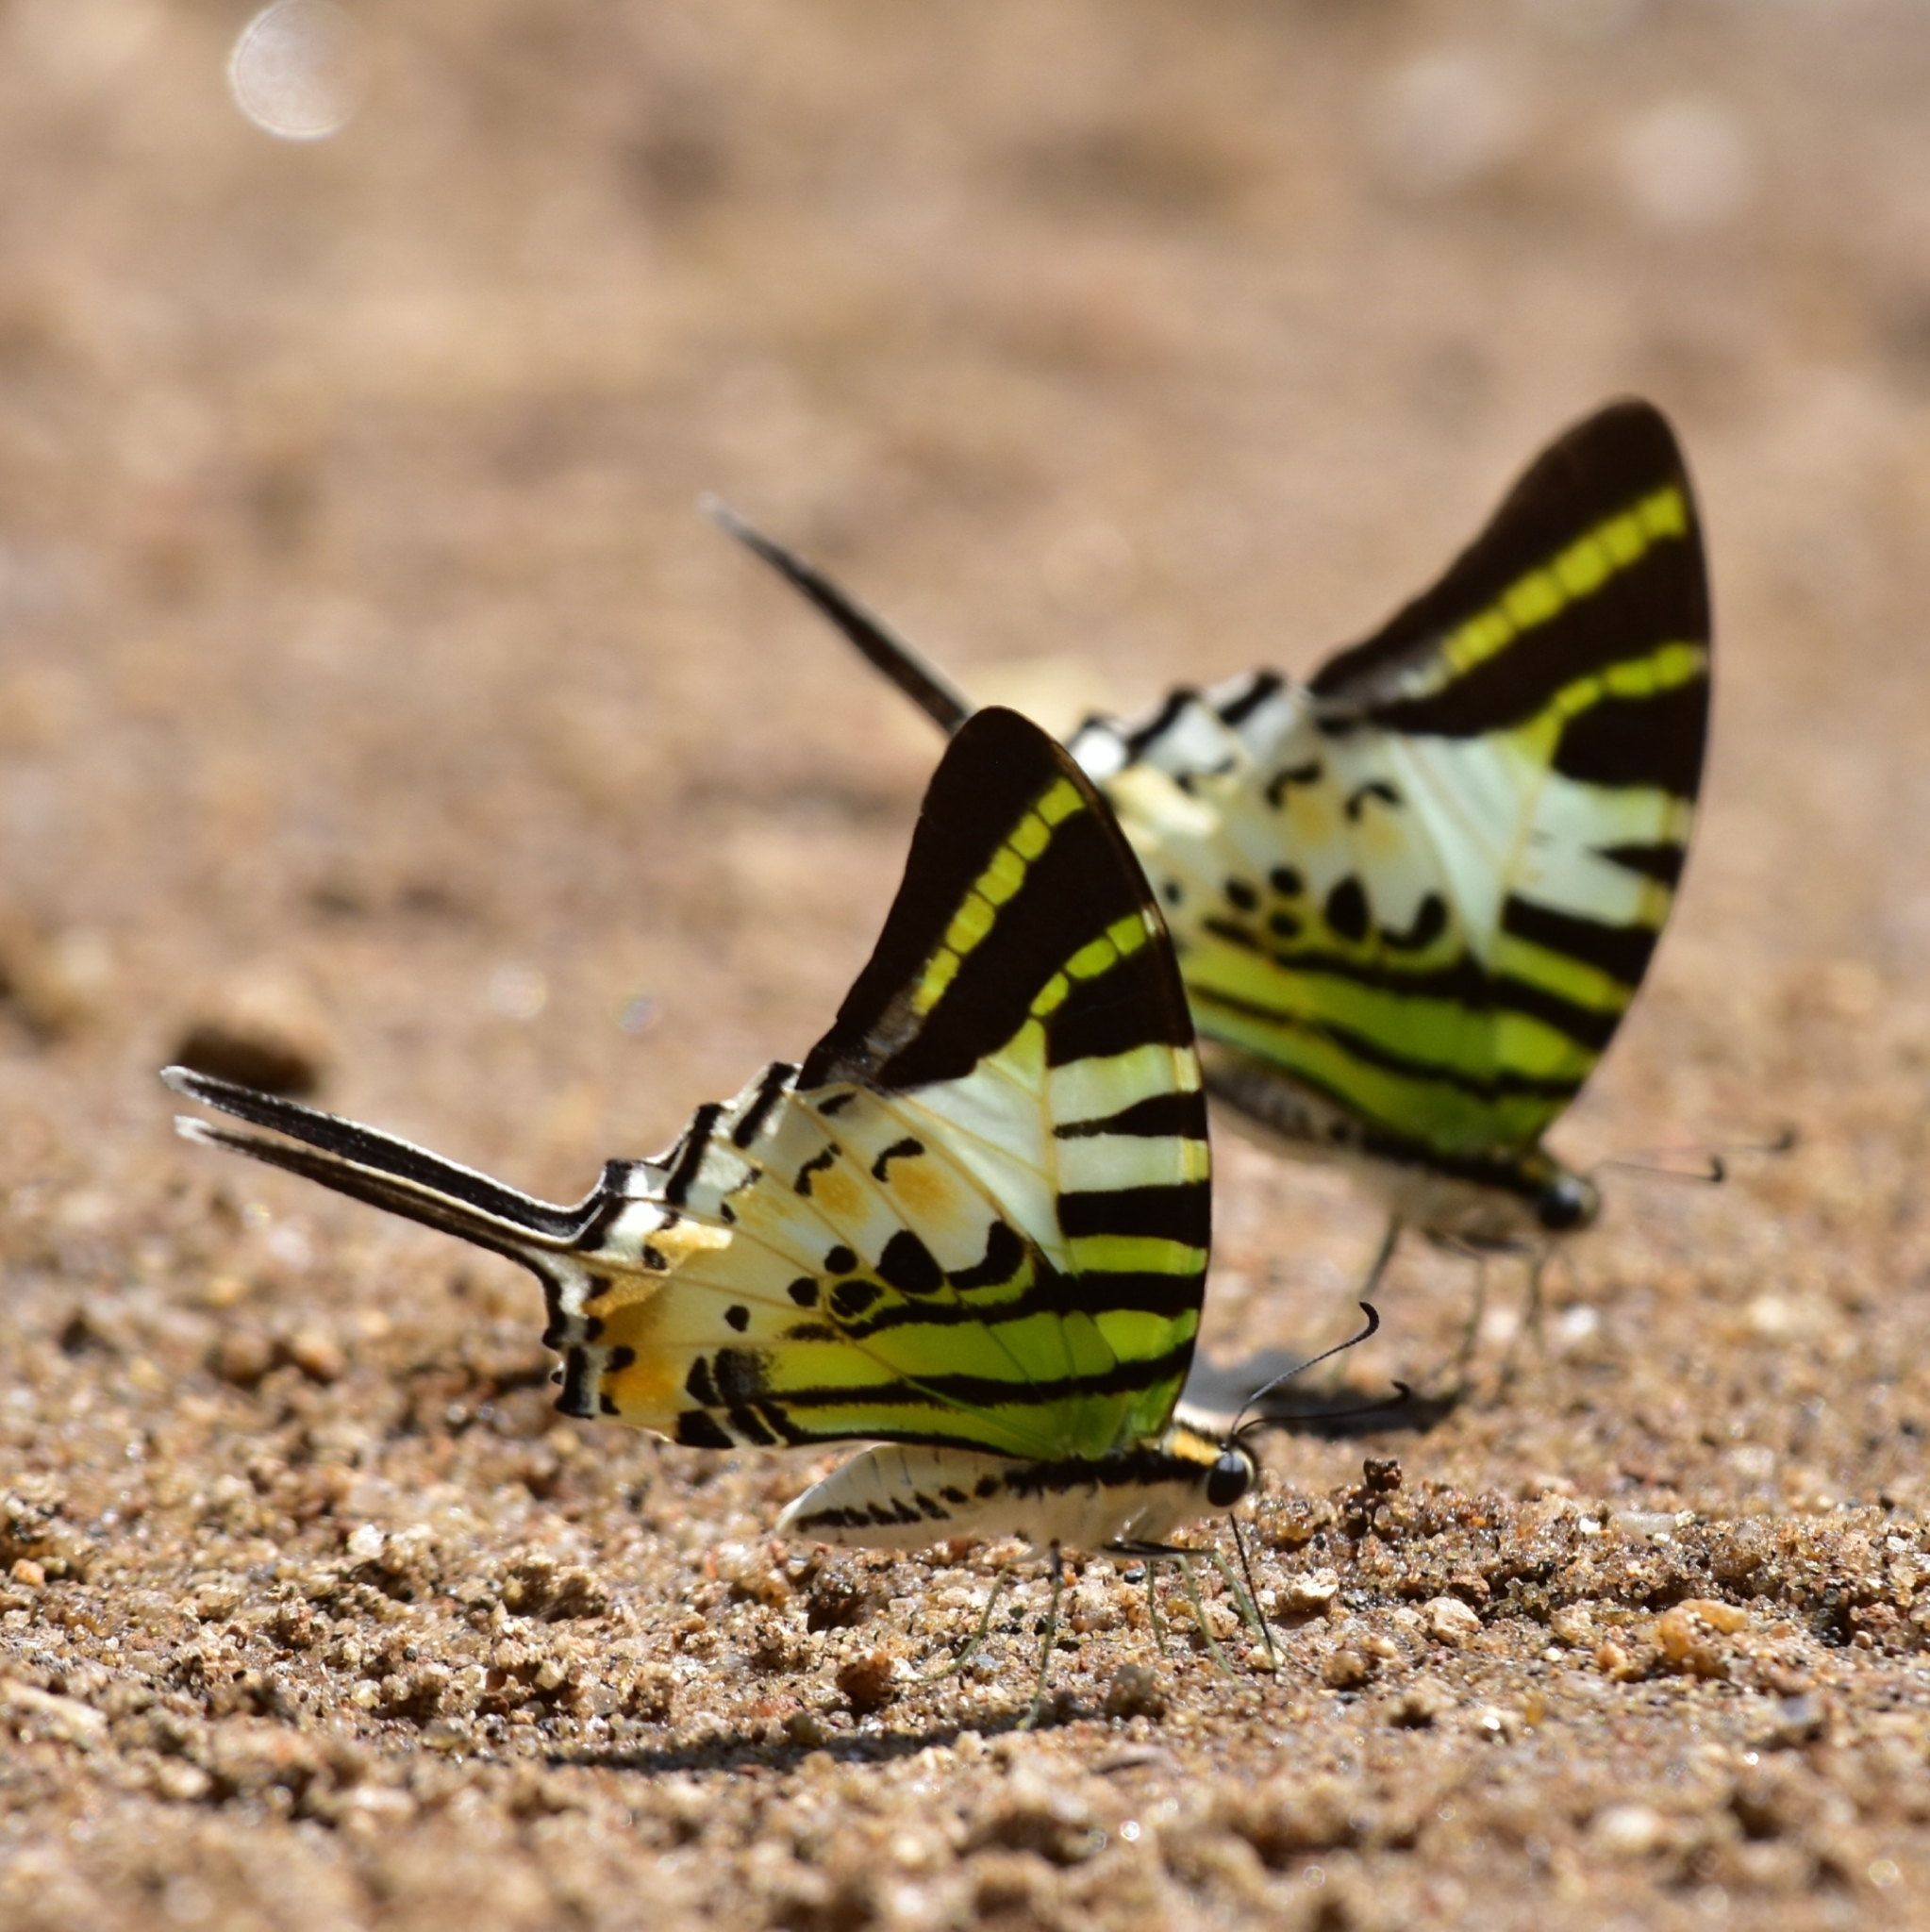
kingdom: Animalia
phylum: Arthropoda
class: Insecta
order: Lepidoptera
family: Papilionidae
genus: Graphium
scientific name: Graphium antiphates
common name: Fivebar swordtail
